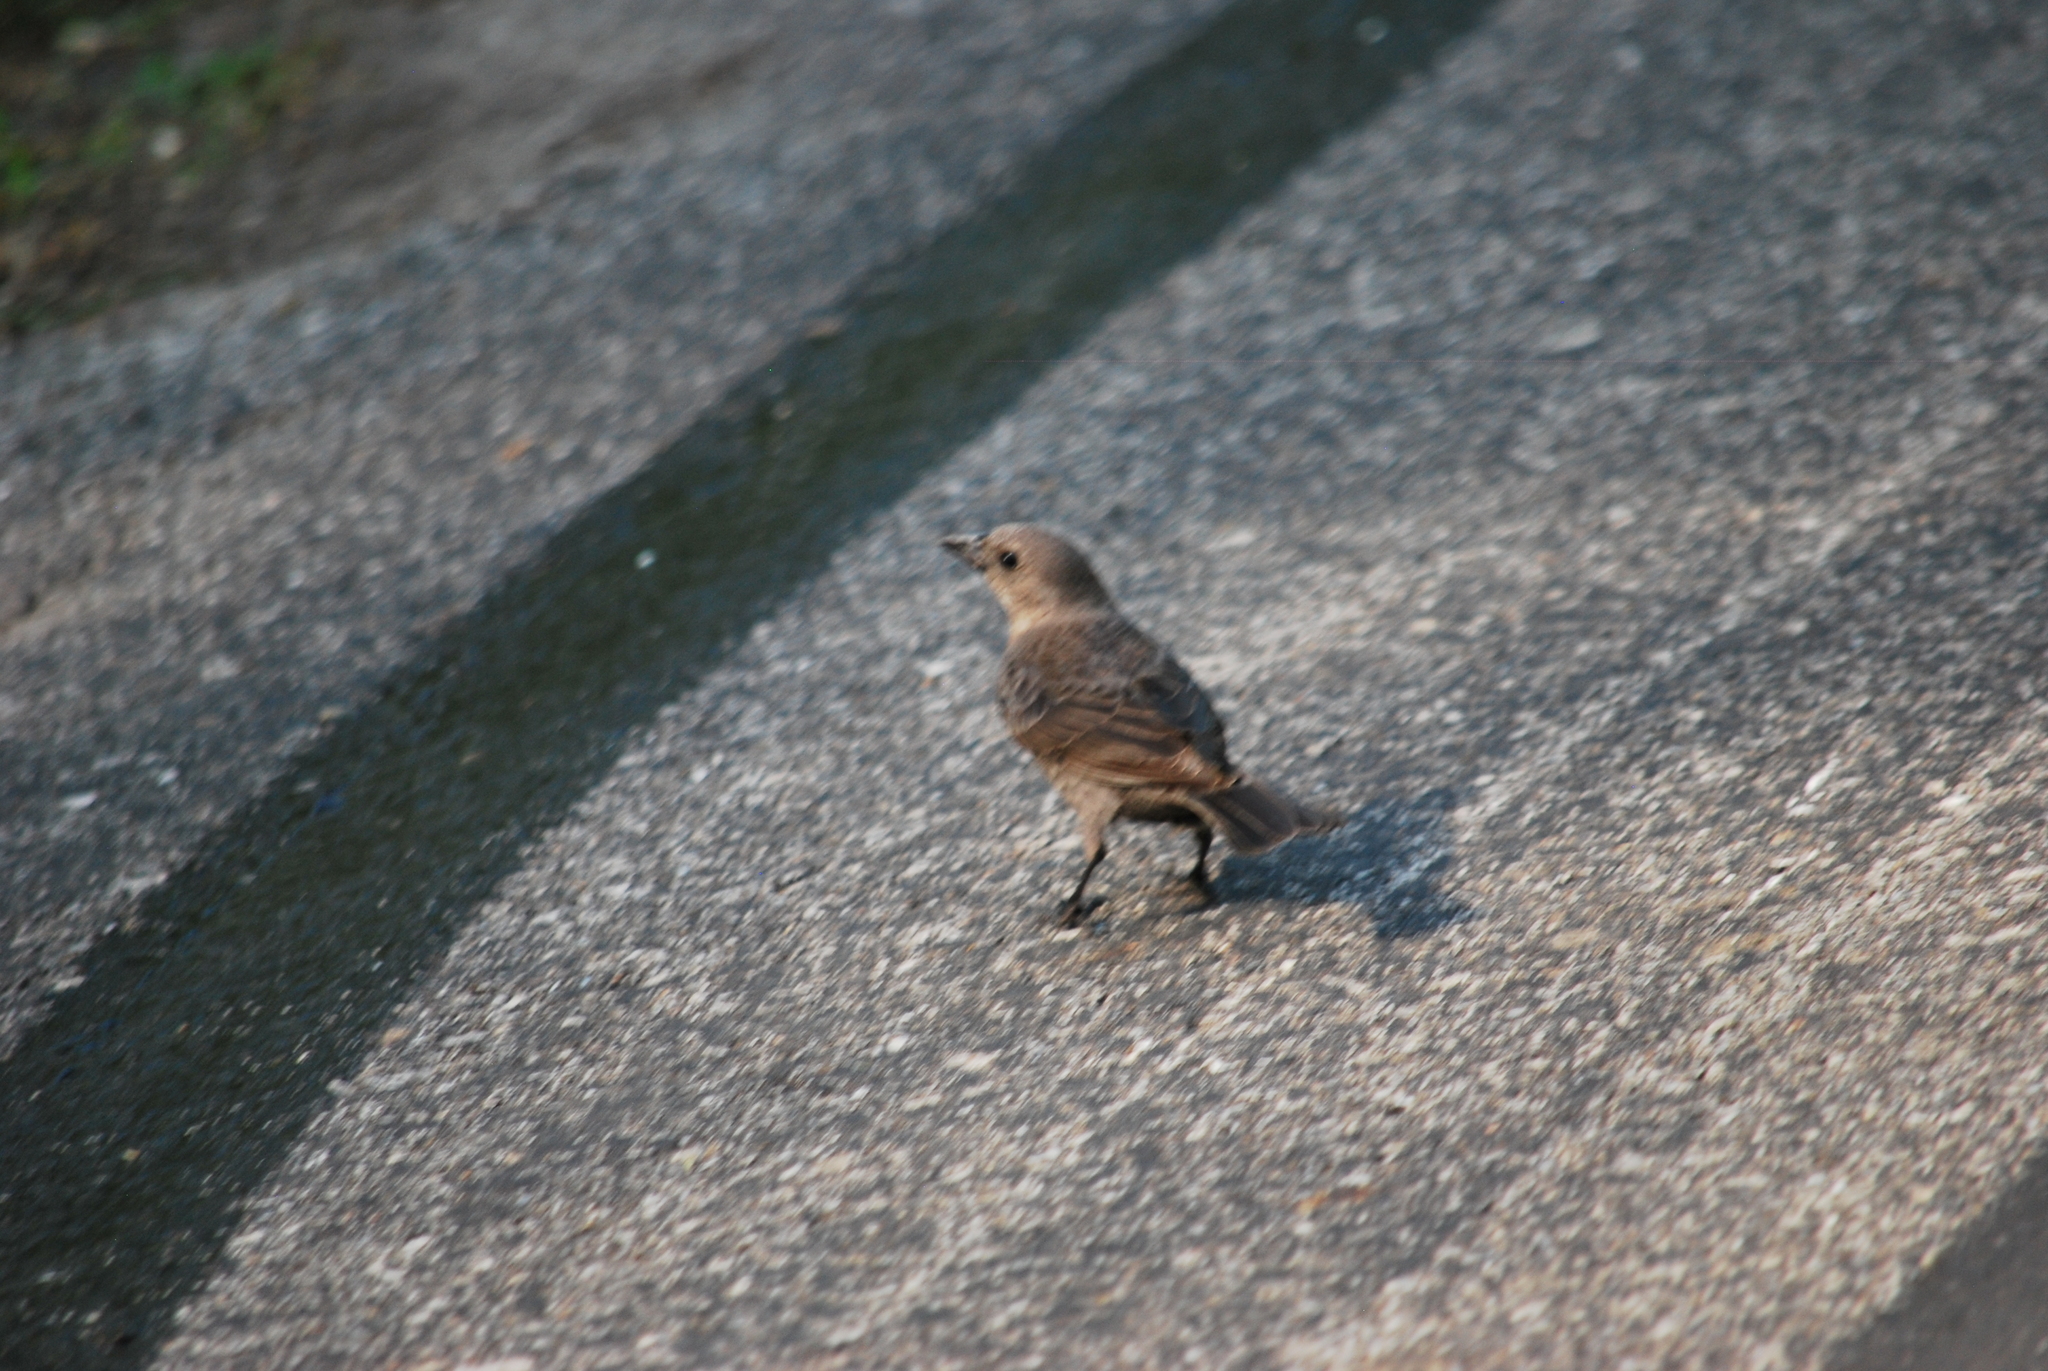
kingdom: Animalia
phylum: Chordata
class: Aves
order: Passeriformes
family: Icteridae
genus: Molothrus
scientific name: Molothrus ater
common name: Brown-headed cowbird
